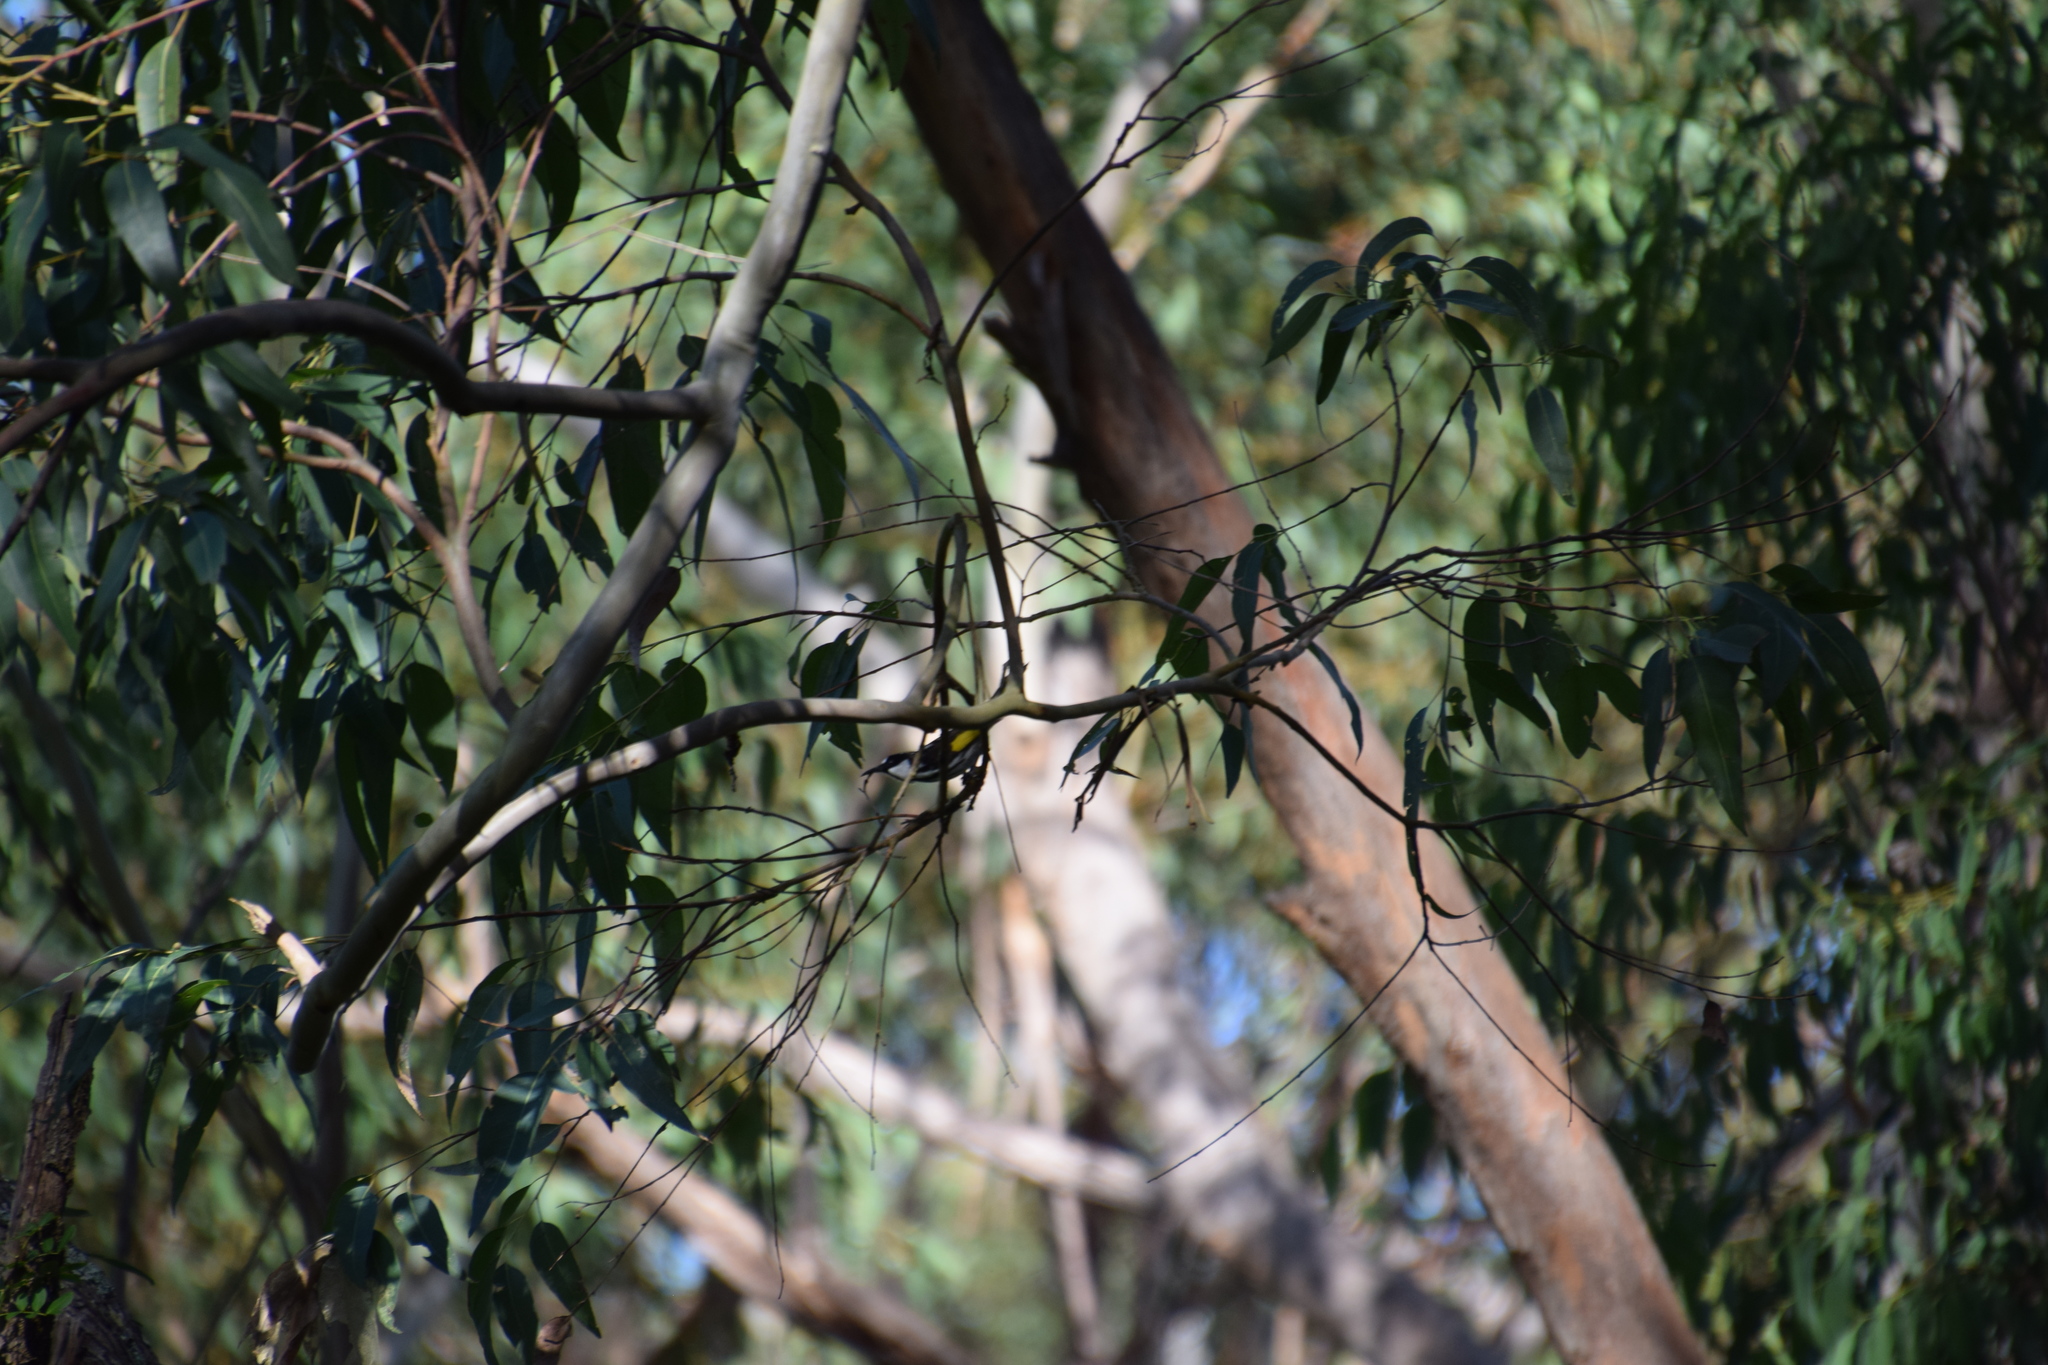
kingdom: Animalia
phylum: Chordata
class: Aves
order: Passeriformes
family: Meliphagidae
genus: Phylidonyris
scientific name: Phylidonyris niger
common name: White-cheeked honeyeater
